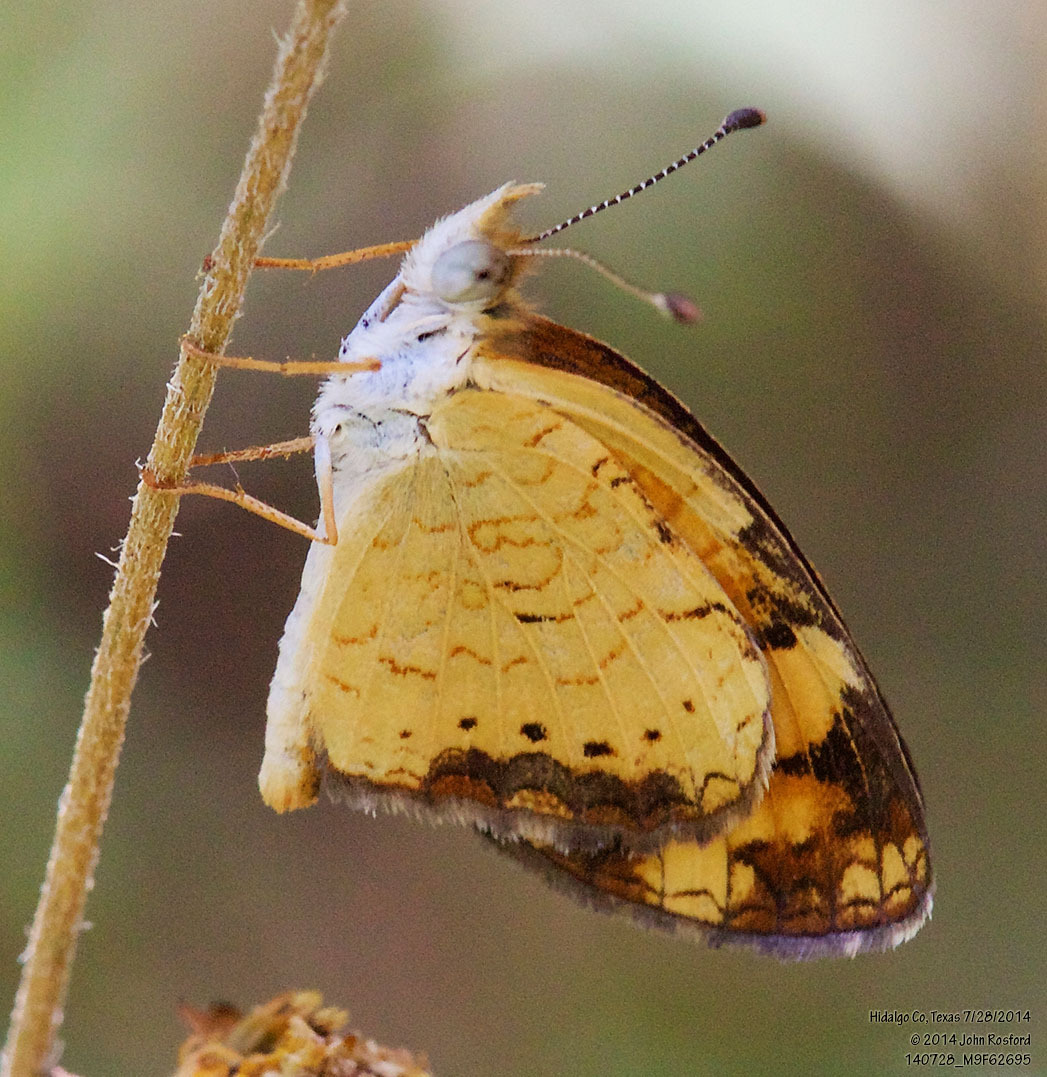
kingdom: Animalia
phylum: Arthropoda
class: Insecta
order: Lepidoptera
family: Nymphalidae
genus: Phyciodes
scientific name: Phyciodes tharos
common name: Pearl crescent
